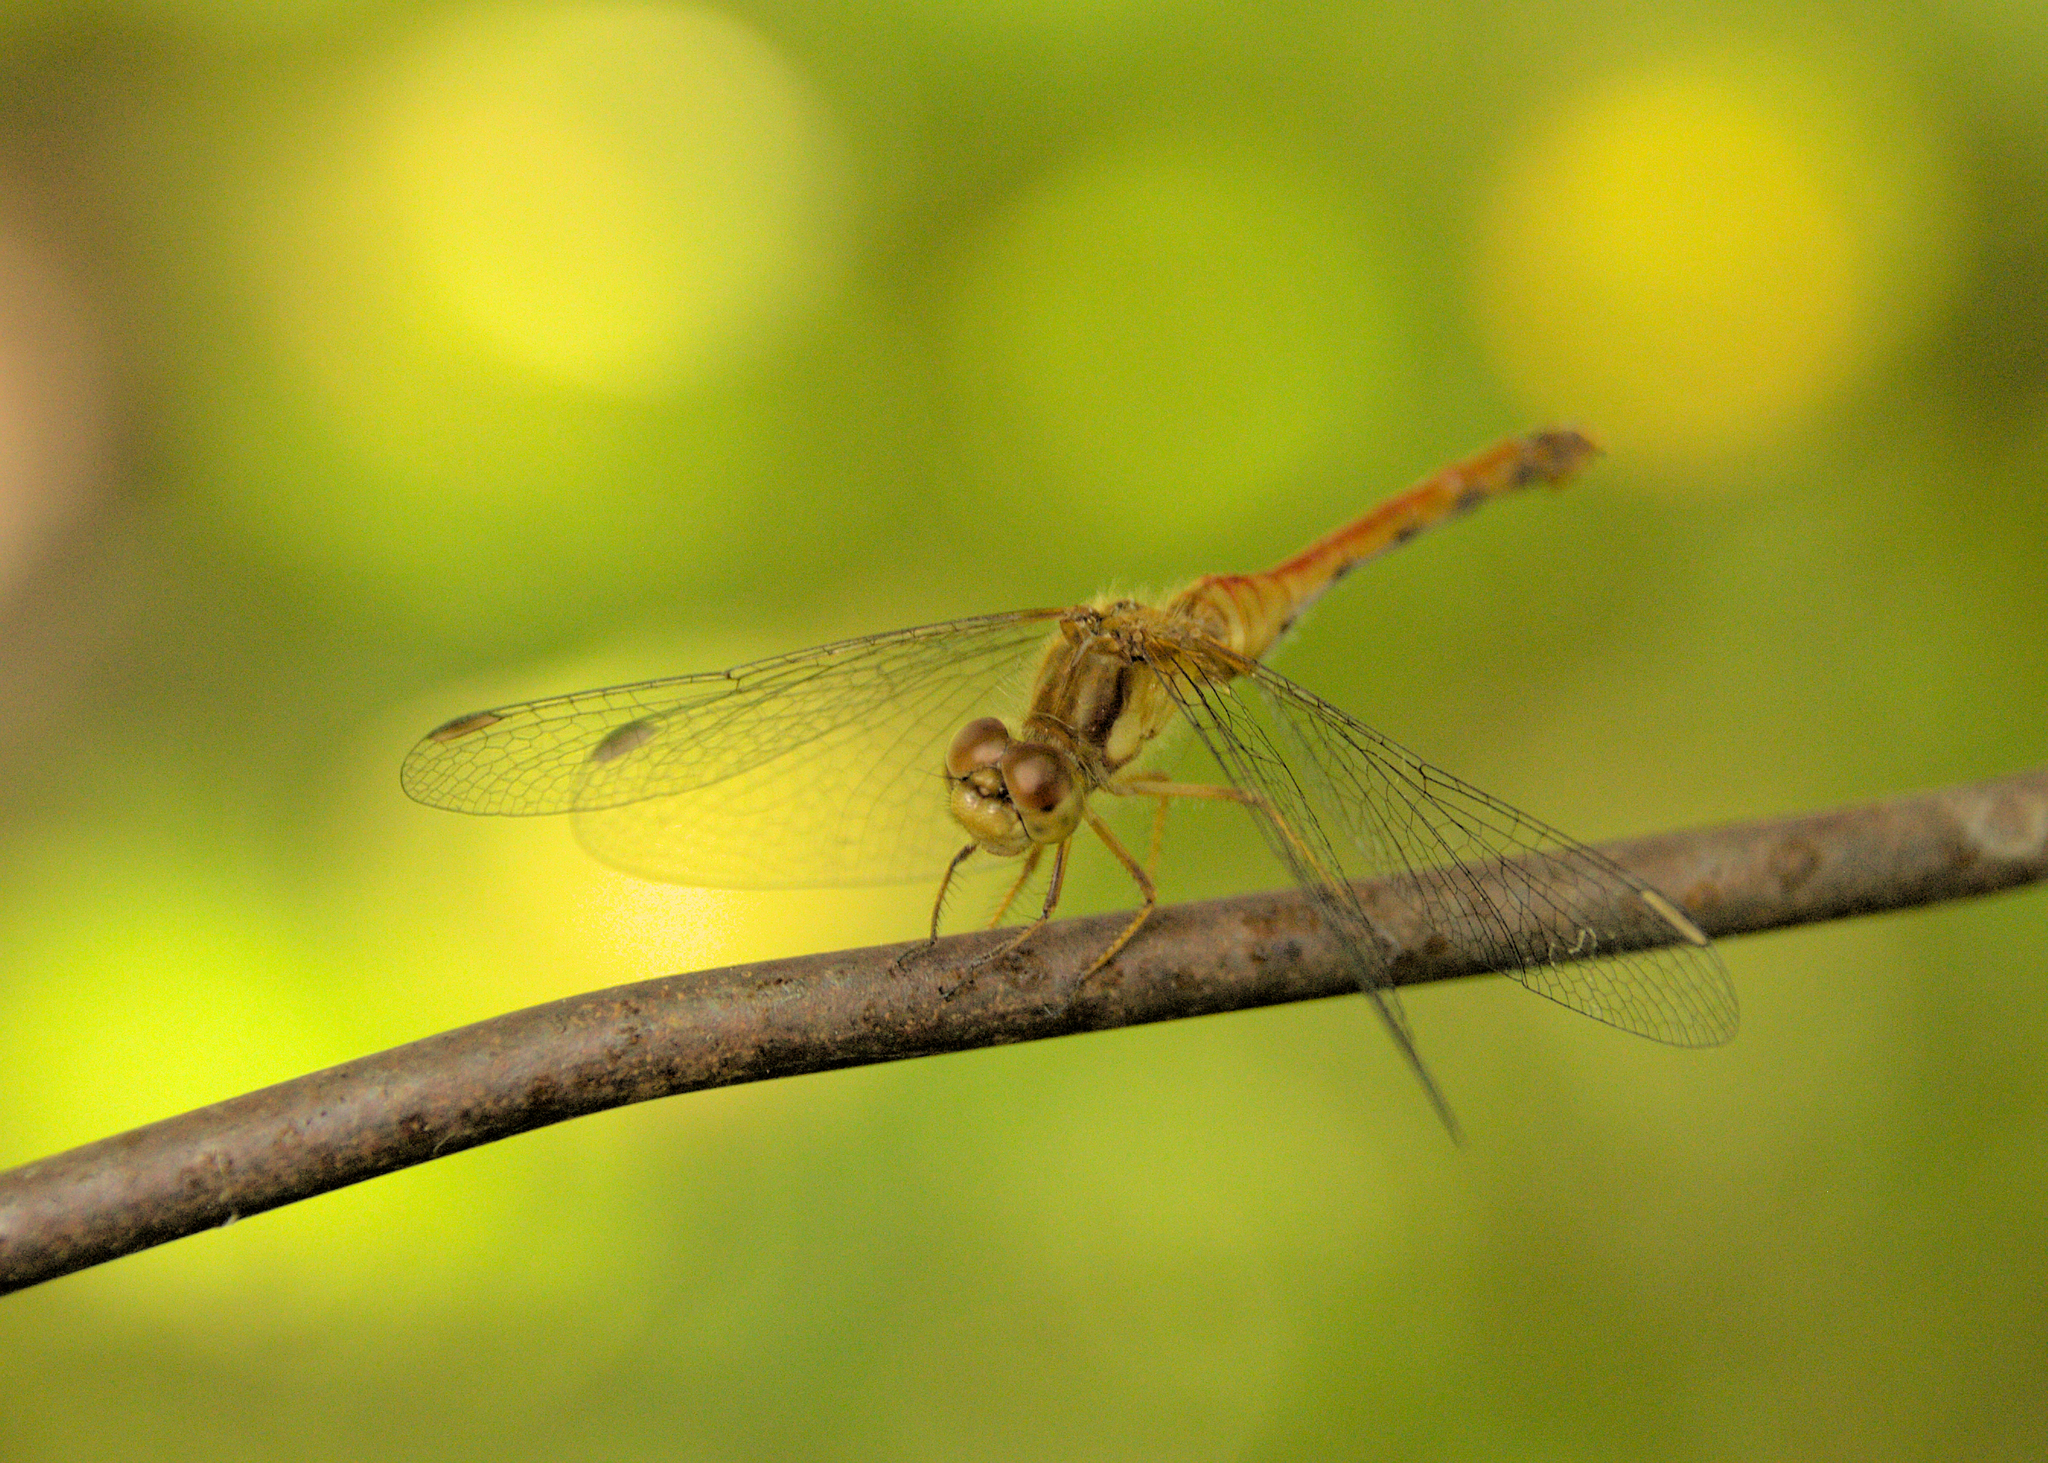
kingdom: Animalia
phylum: Arthropoda
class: Insecta
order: Odonata
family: Libellulidae
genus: Sympetrum
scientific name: Sympetrum vicinum
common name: Autumn meadowhawk
